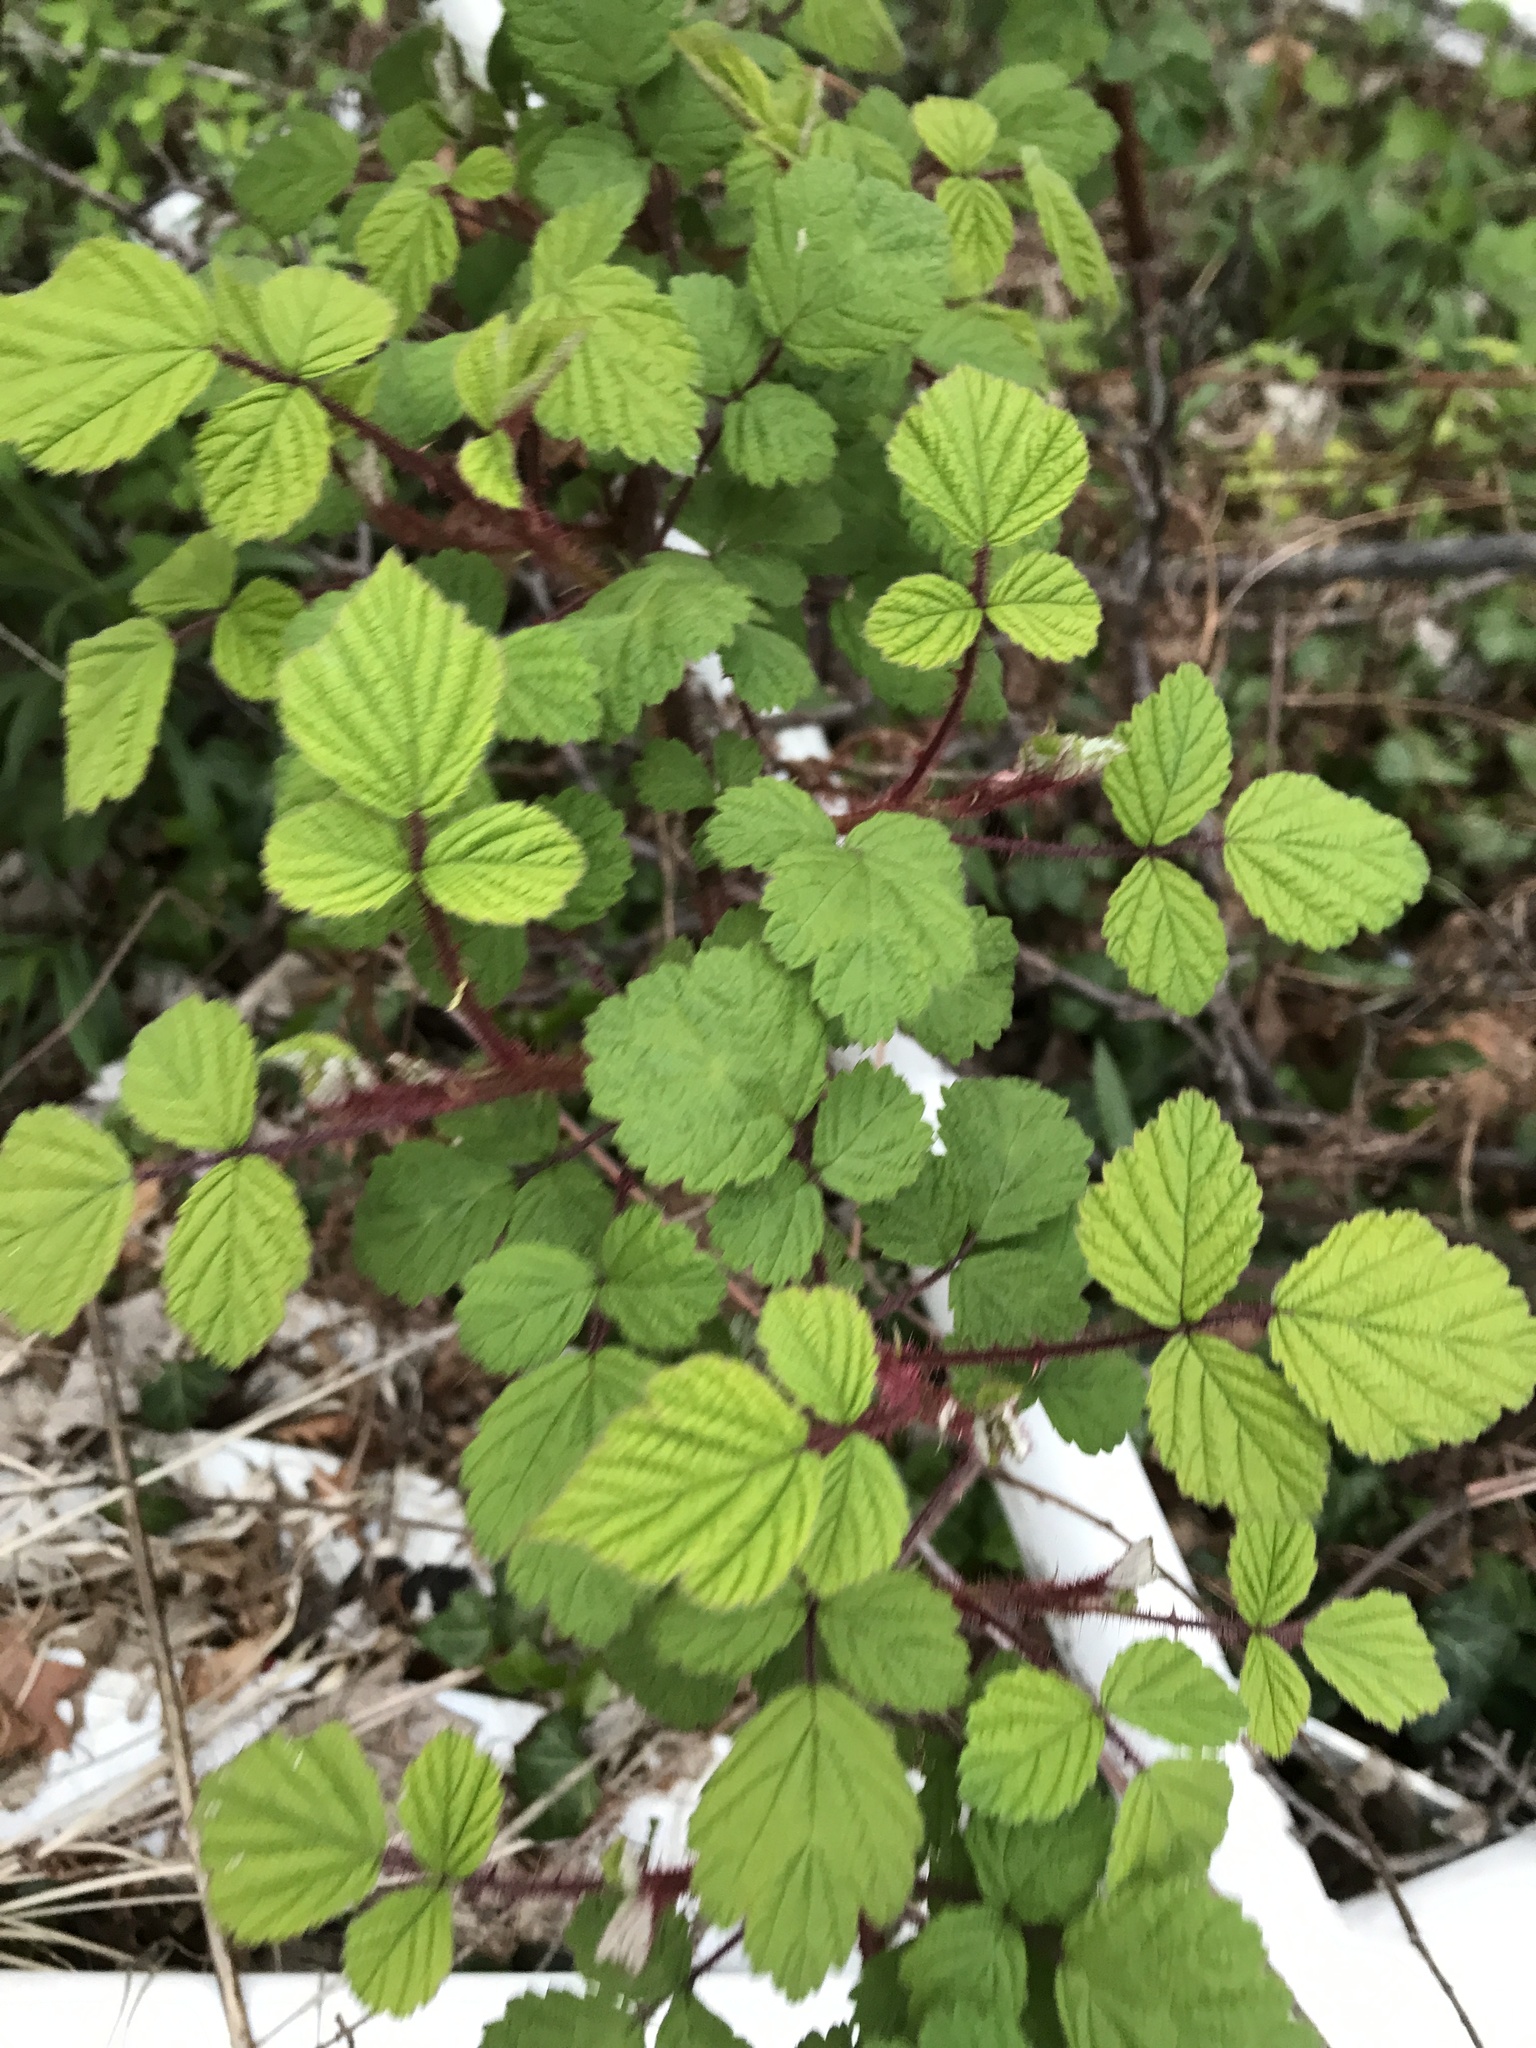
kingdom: Plantae
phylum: Tracheophyta
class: Magnoliopsida
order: Rosales
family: Rosaceae
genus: Rubus
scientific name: Rubus phoenicolasius
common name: Japanese wineberry
